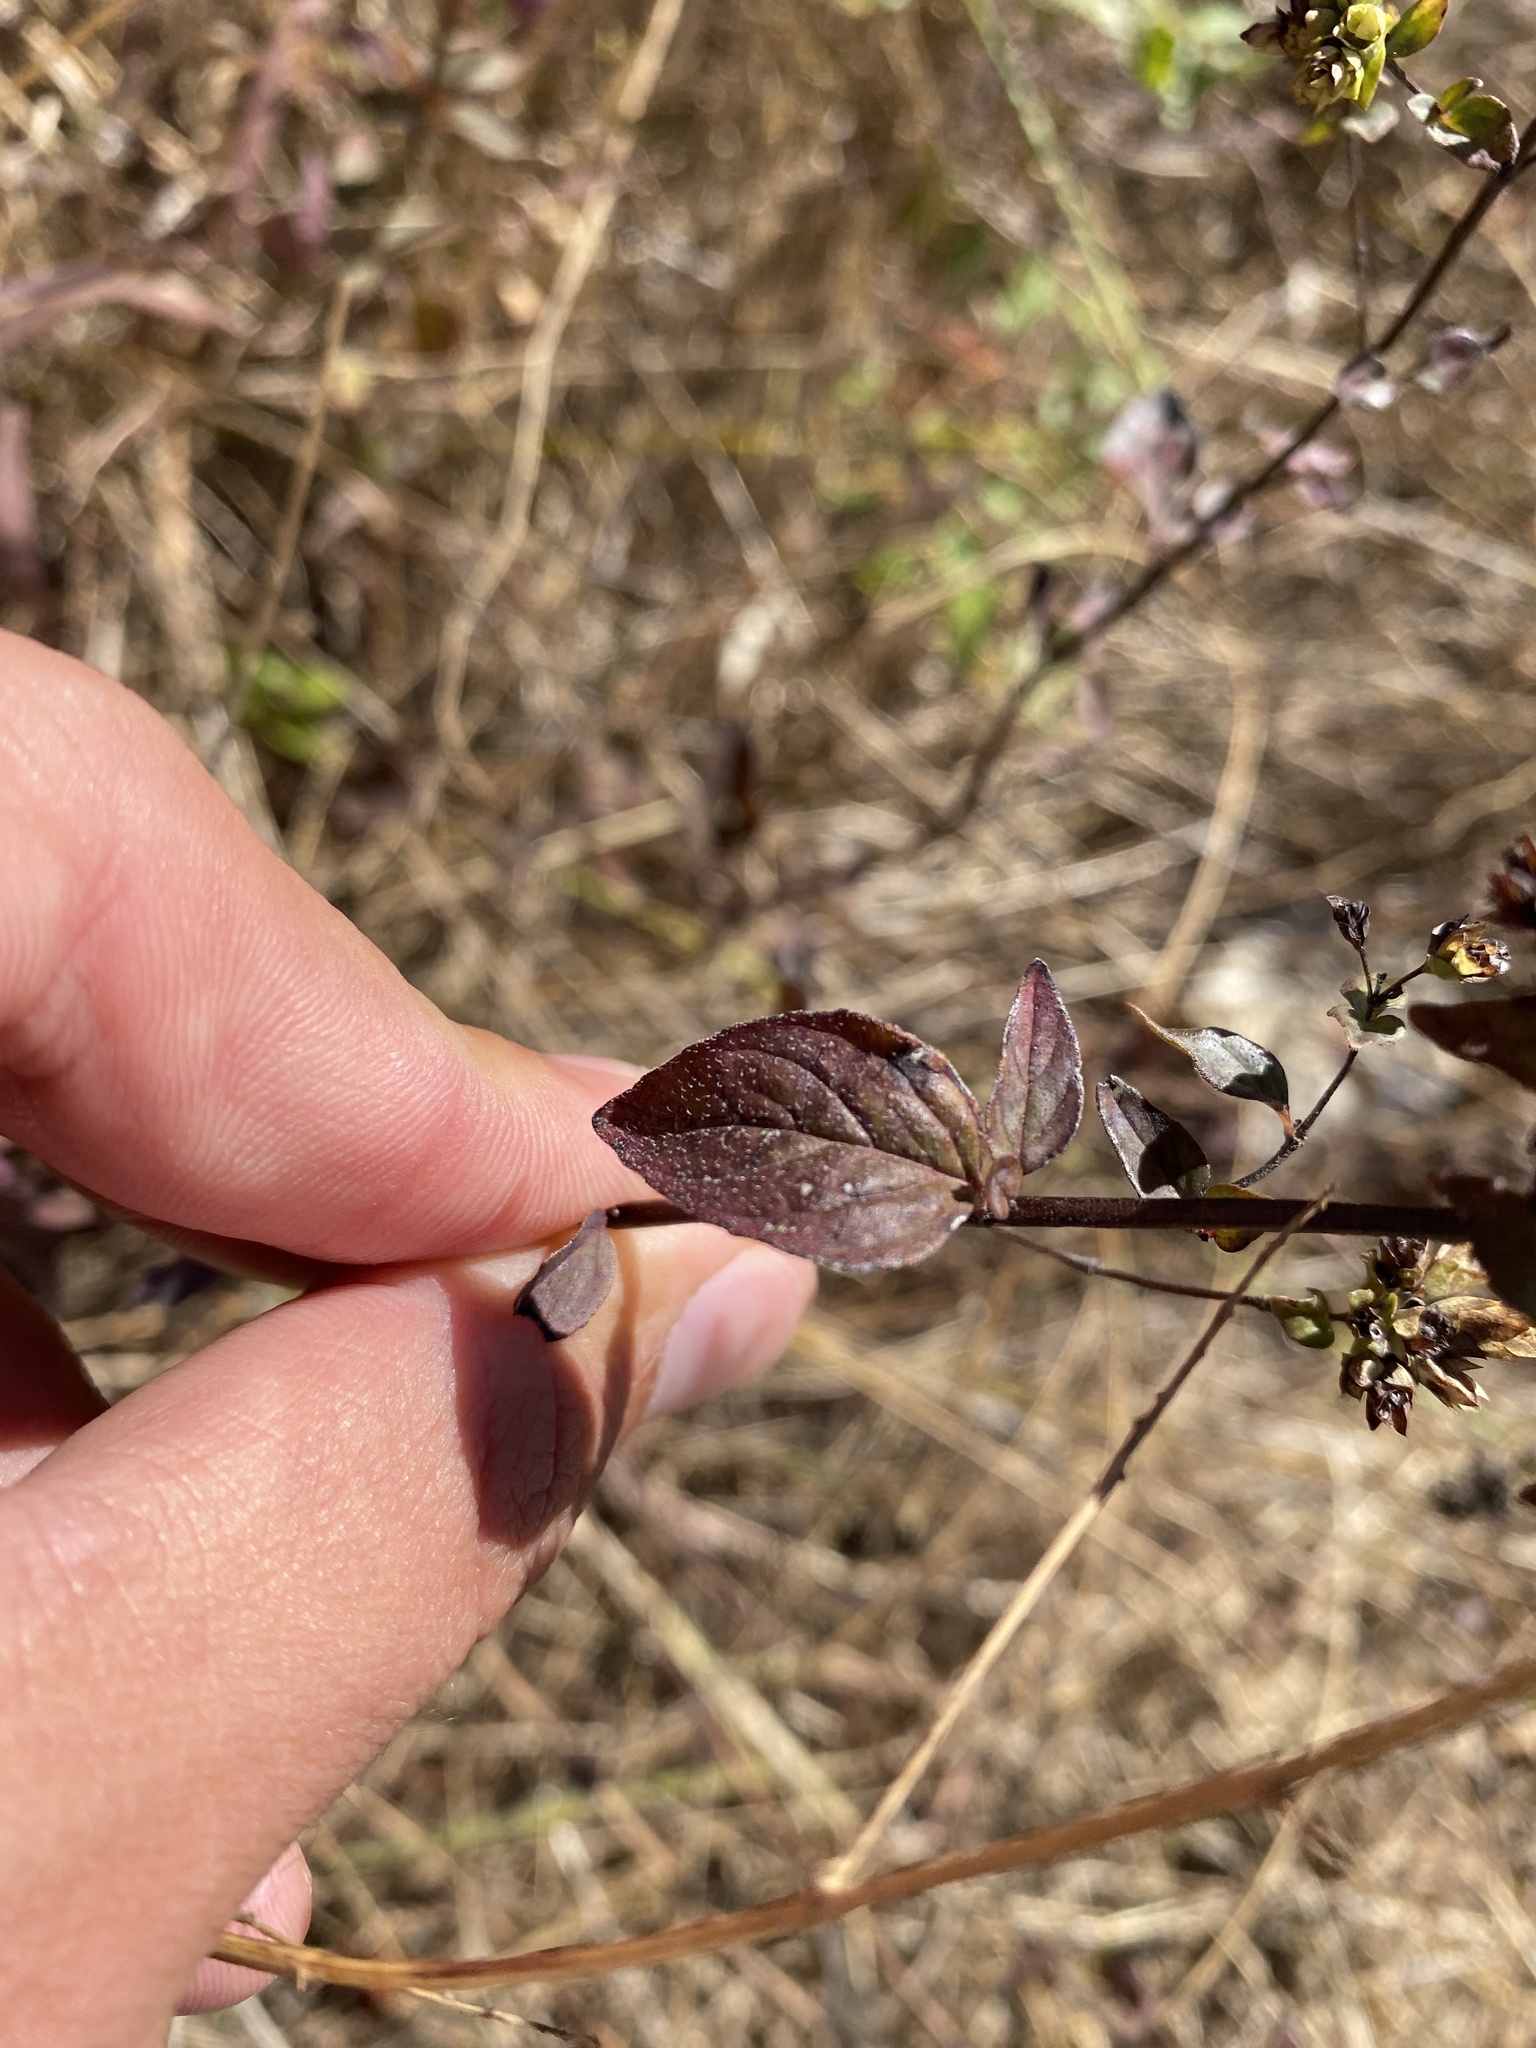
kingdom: Plantae
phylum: Tracheophyta
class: Magnoliopsida
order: Lamiales
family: Lamiaceae
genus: Origanum
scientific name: Origanum vulgare
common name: Wild marjoram
